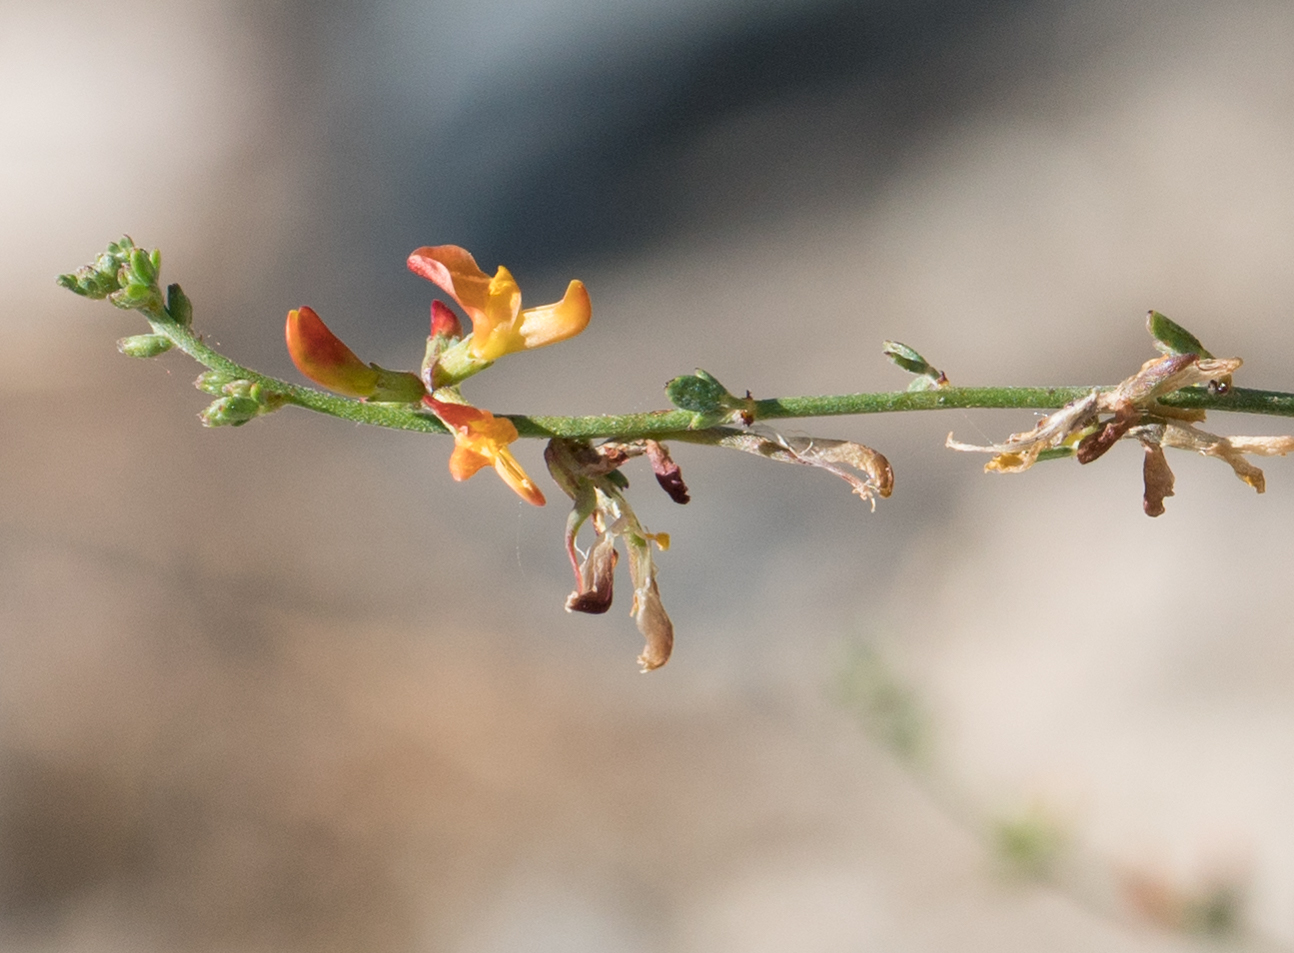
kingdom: Plantae
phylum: Tracheophyta
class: Magnoliopsida
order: Fabales
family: Fabaceae
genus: Acmispon
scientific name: Acmispon glaber
